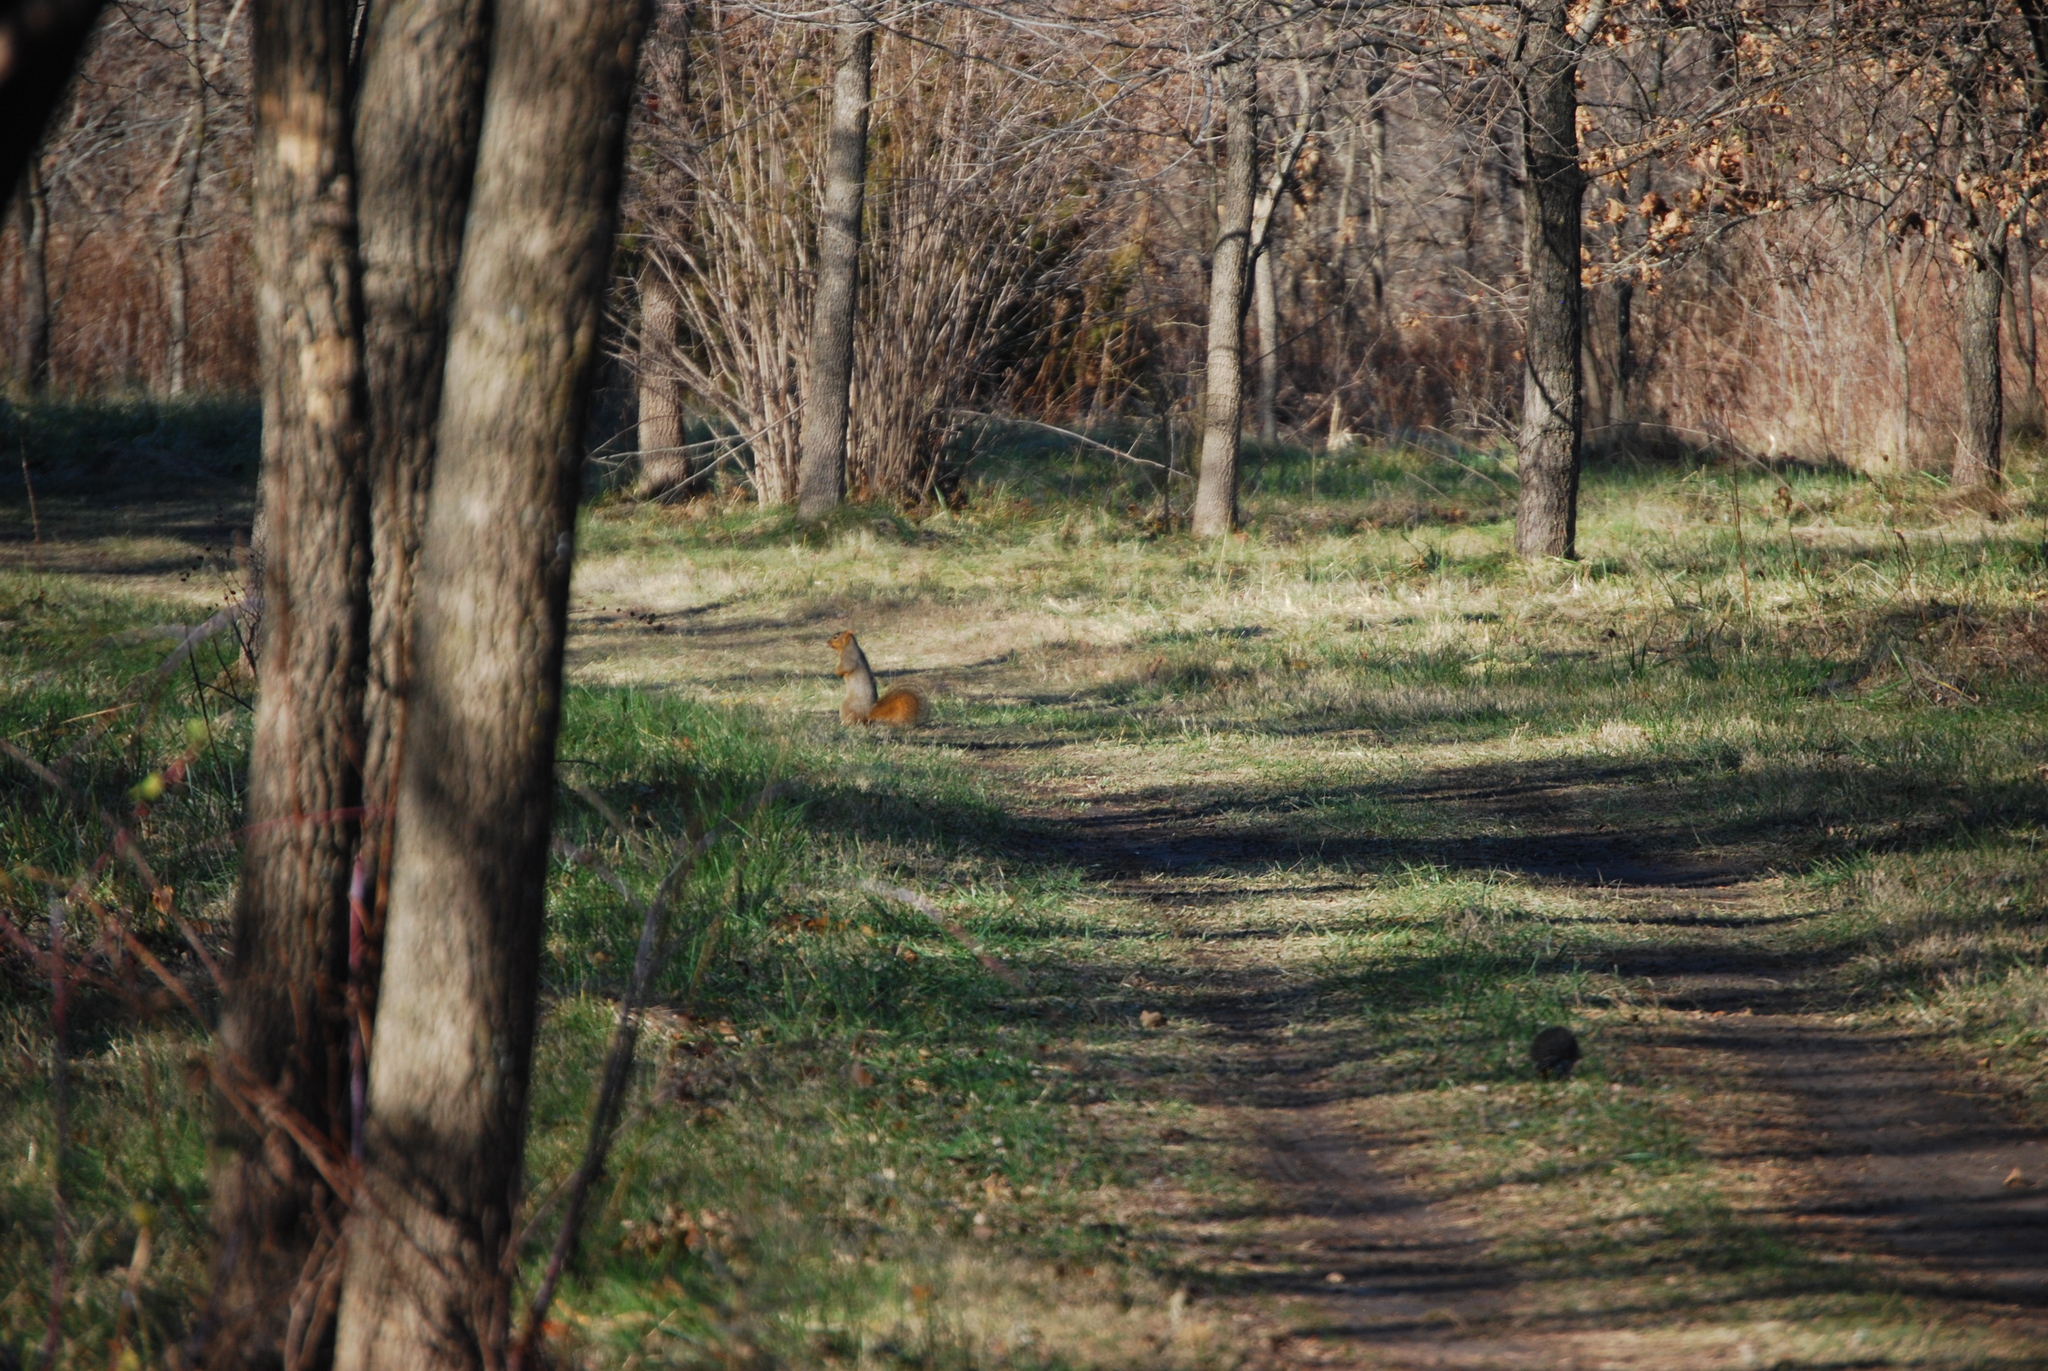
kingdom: Animalia
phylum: Chordata
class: Mammalia
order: Rodentia
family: Sciuridae
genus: Sciurus
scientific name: Sciurus niger
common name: Fox squirrel
